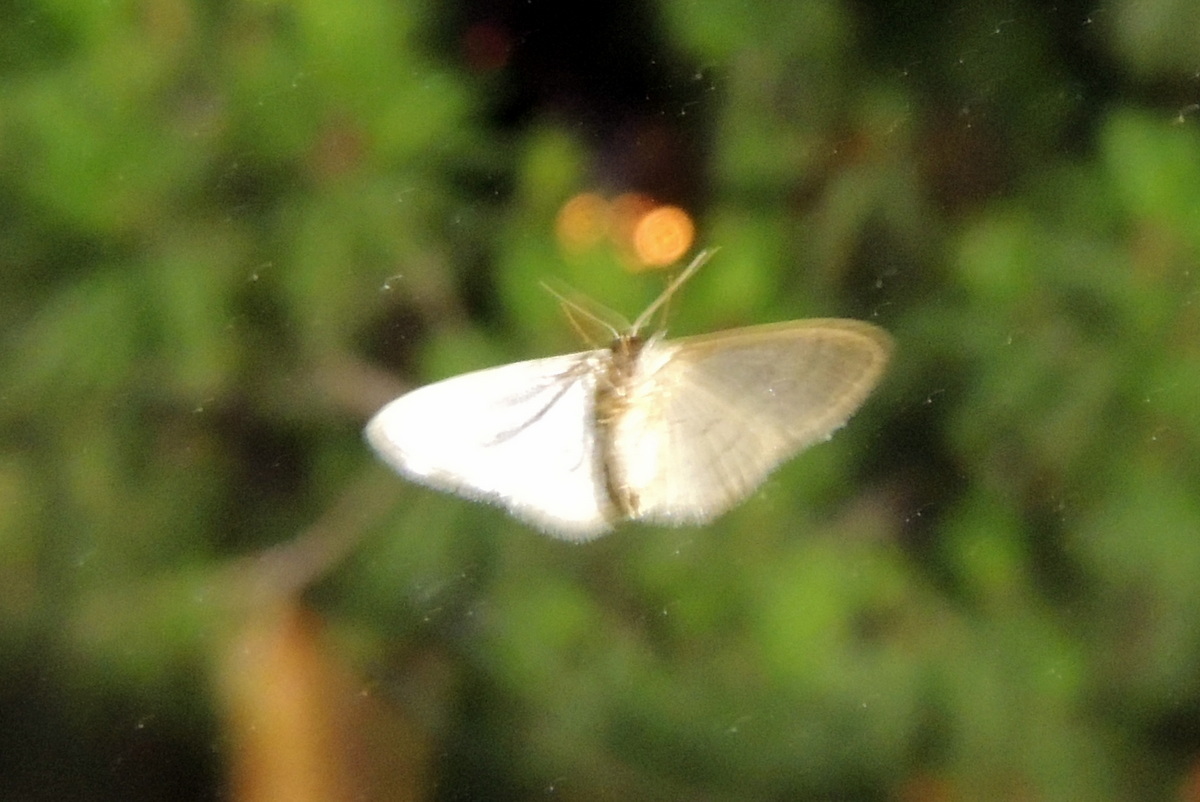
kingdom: Animalia
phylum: Arthropoda
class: Insecta
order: Lepidoptera
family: Geometridae
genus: Idaea
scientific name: Idaea distinctaria
